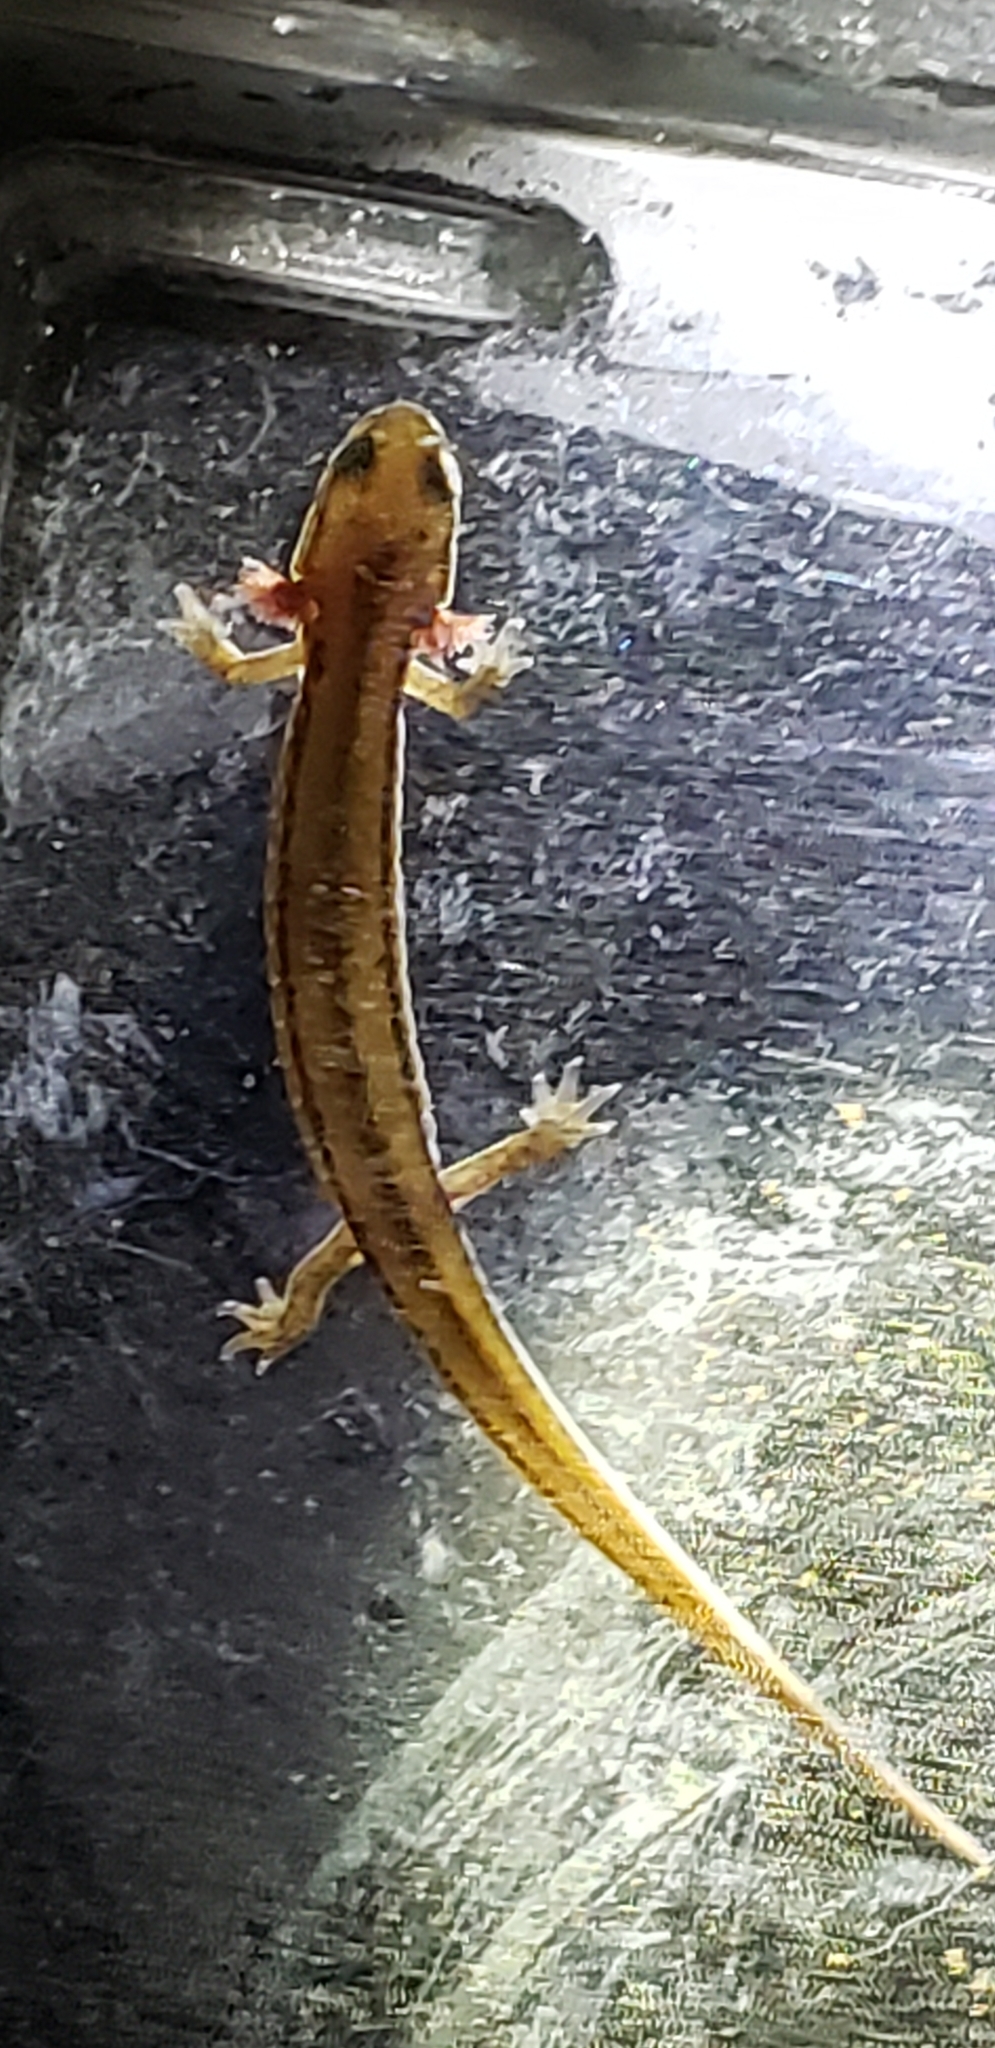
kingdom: Animalia
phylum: Chordata
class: Amphibia
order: Caudata
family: Plethodontidae
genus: Eurycea
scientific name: Eurycea bislineata
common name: Northern two-lined salamander
